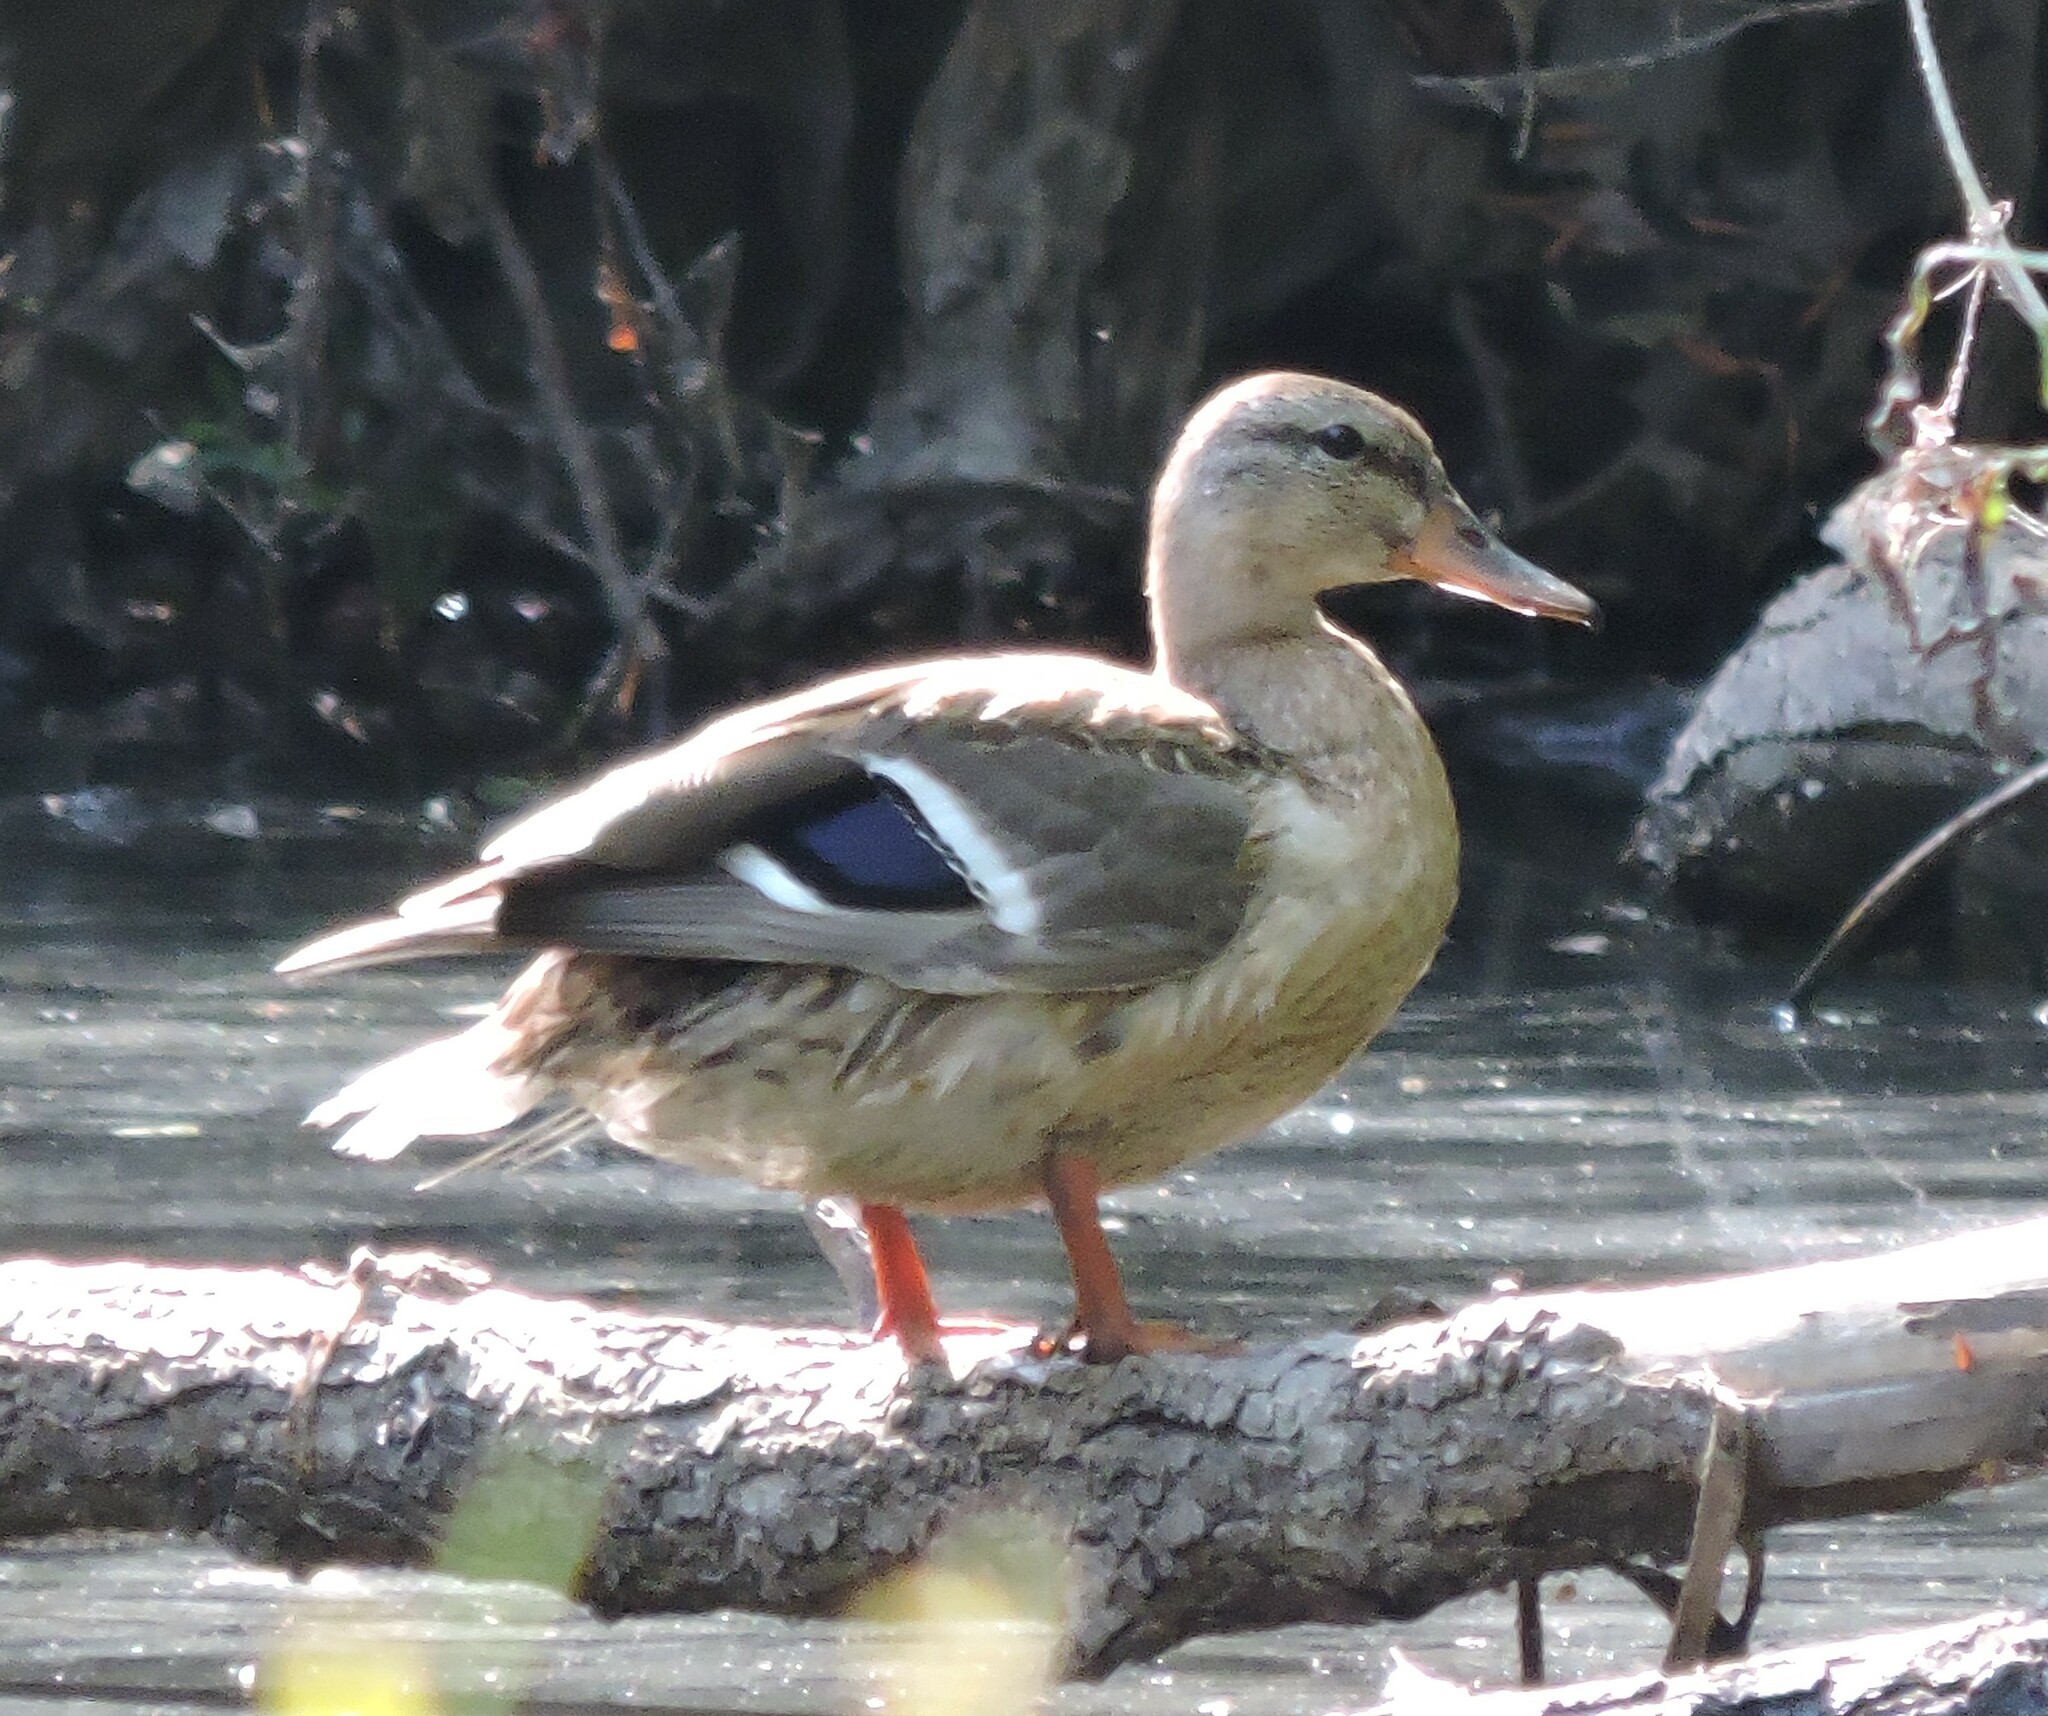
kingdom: Animalia
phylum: Chordata
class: Aves
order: Anseriformes
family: Anatidae
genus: Anas
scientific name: Anas platyrhynchos
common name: Mallard
